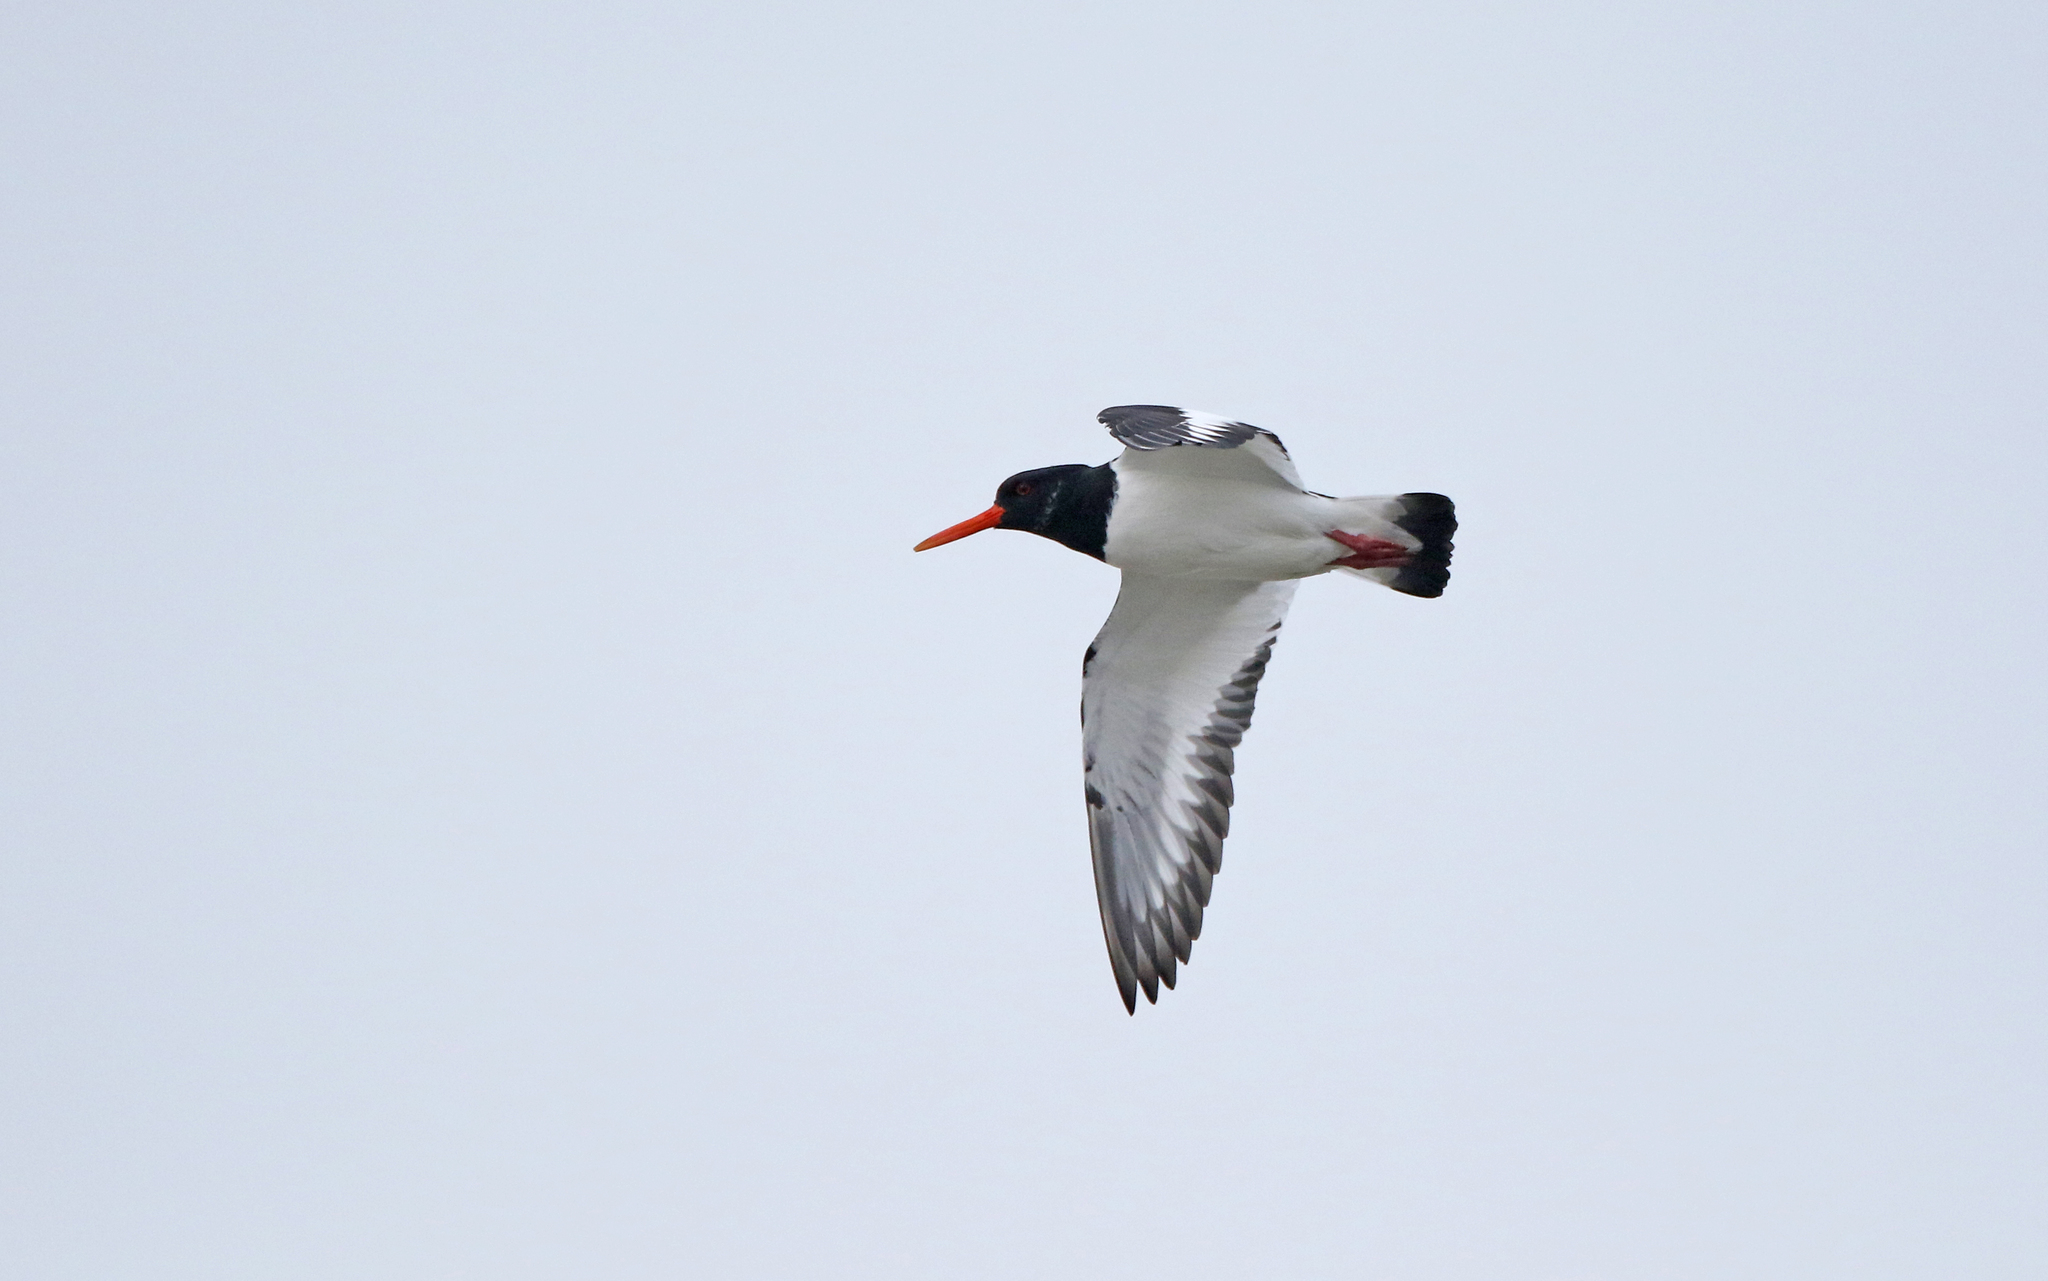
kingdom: Animalia
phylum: Chordata
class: Aves
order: Charadriiformes
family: Haematopodidae
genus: Haematopus
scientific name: Haematopus ostralegus
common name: Eurasian oystercatcher
